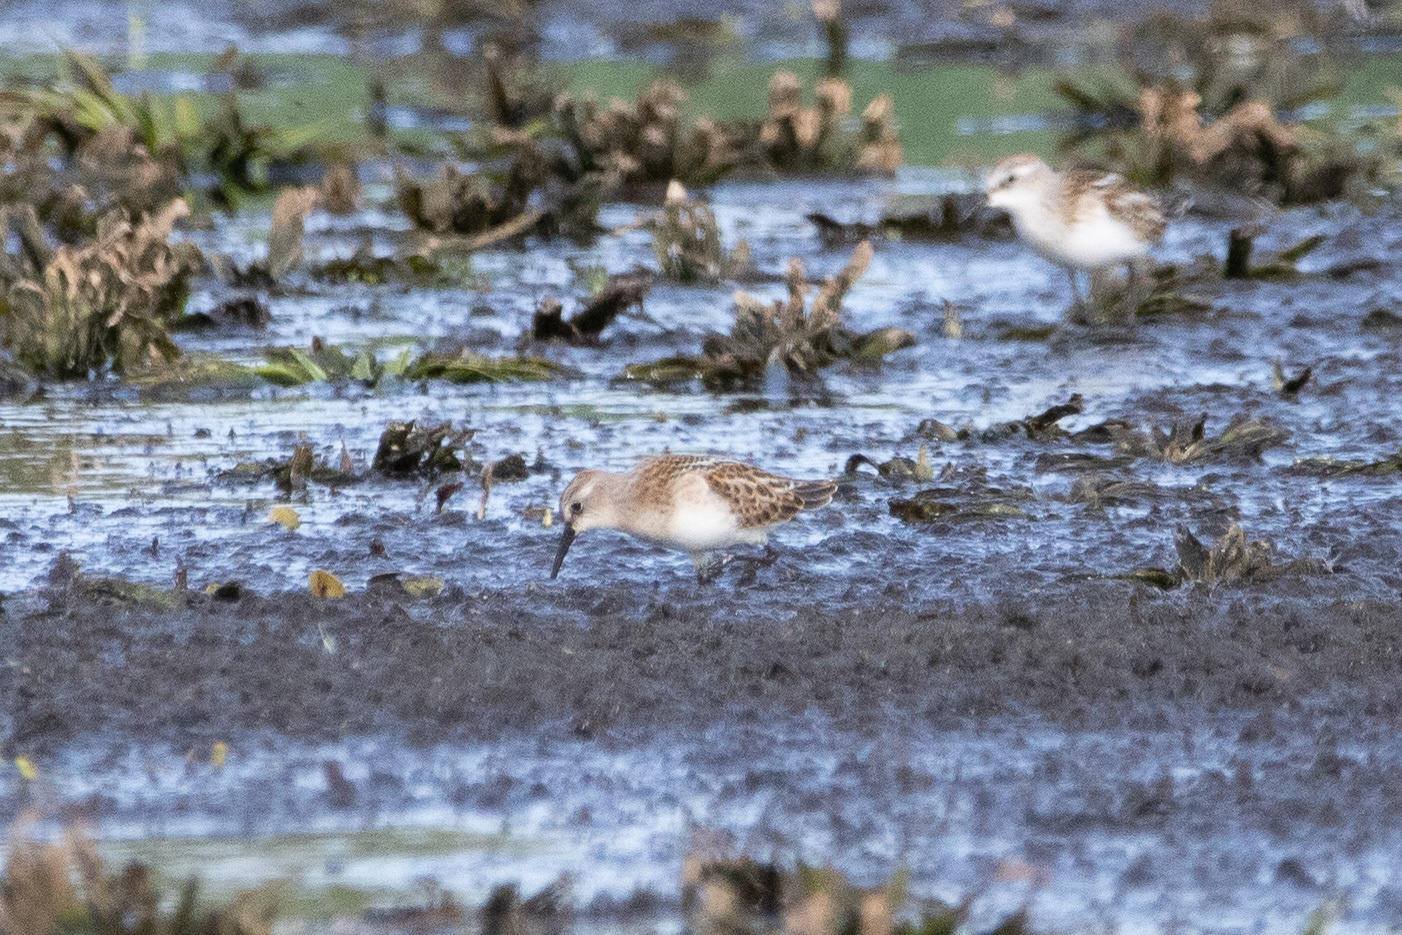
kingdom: Animalia
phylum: Chordata
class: Aves
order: Charadriiformes
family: Scolopacidae
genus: Calidris
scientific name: Calidris minuta
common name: Little stint
